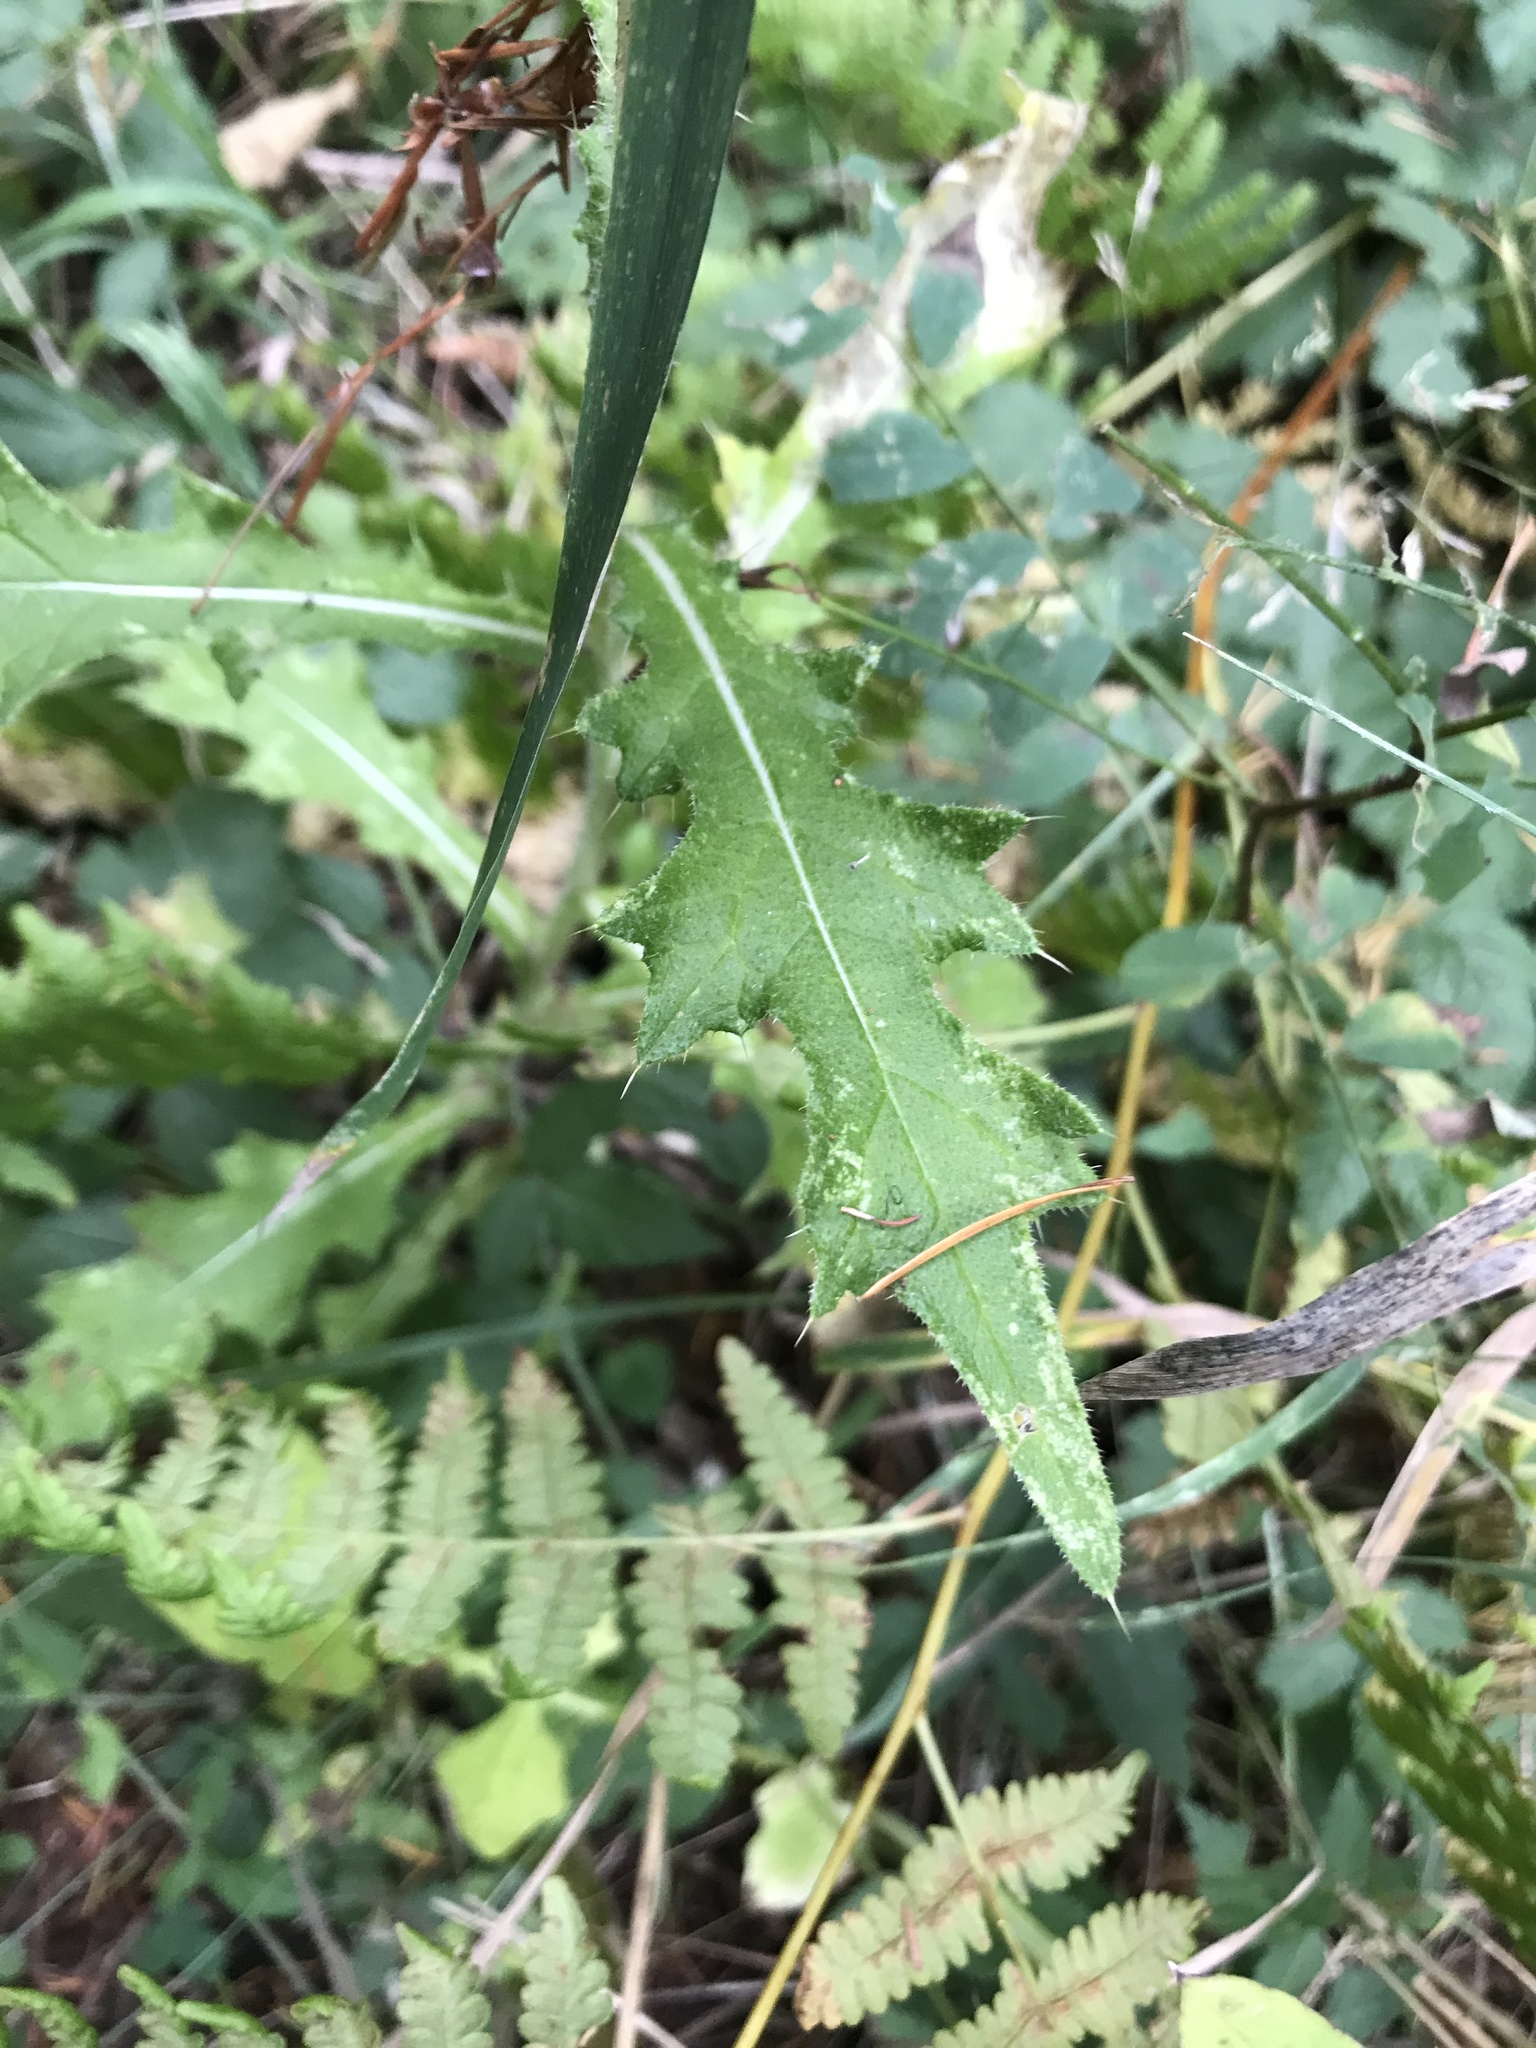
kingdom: Plantae
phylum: Tracheophyta
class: Magnoliopsida
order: Asterales
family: Asteraceae
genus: Cirsium
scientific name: Cirsium vulgare
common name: Bull thistle
